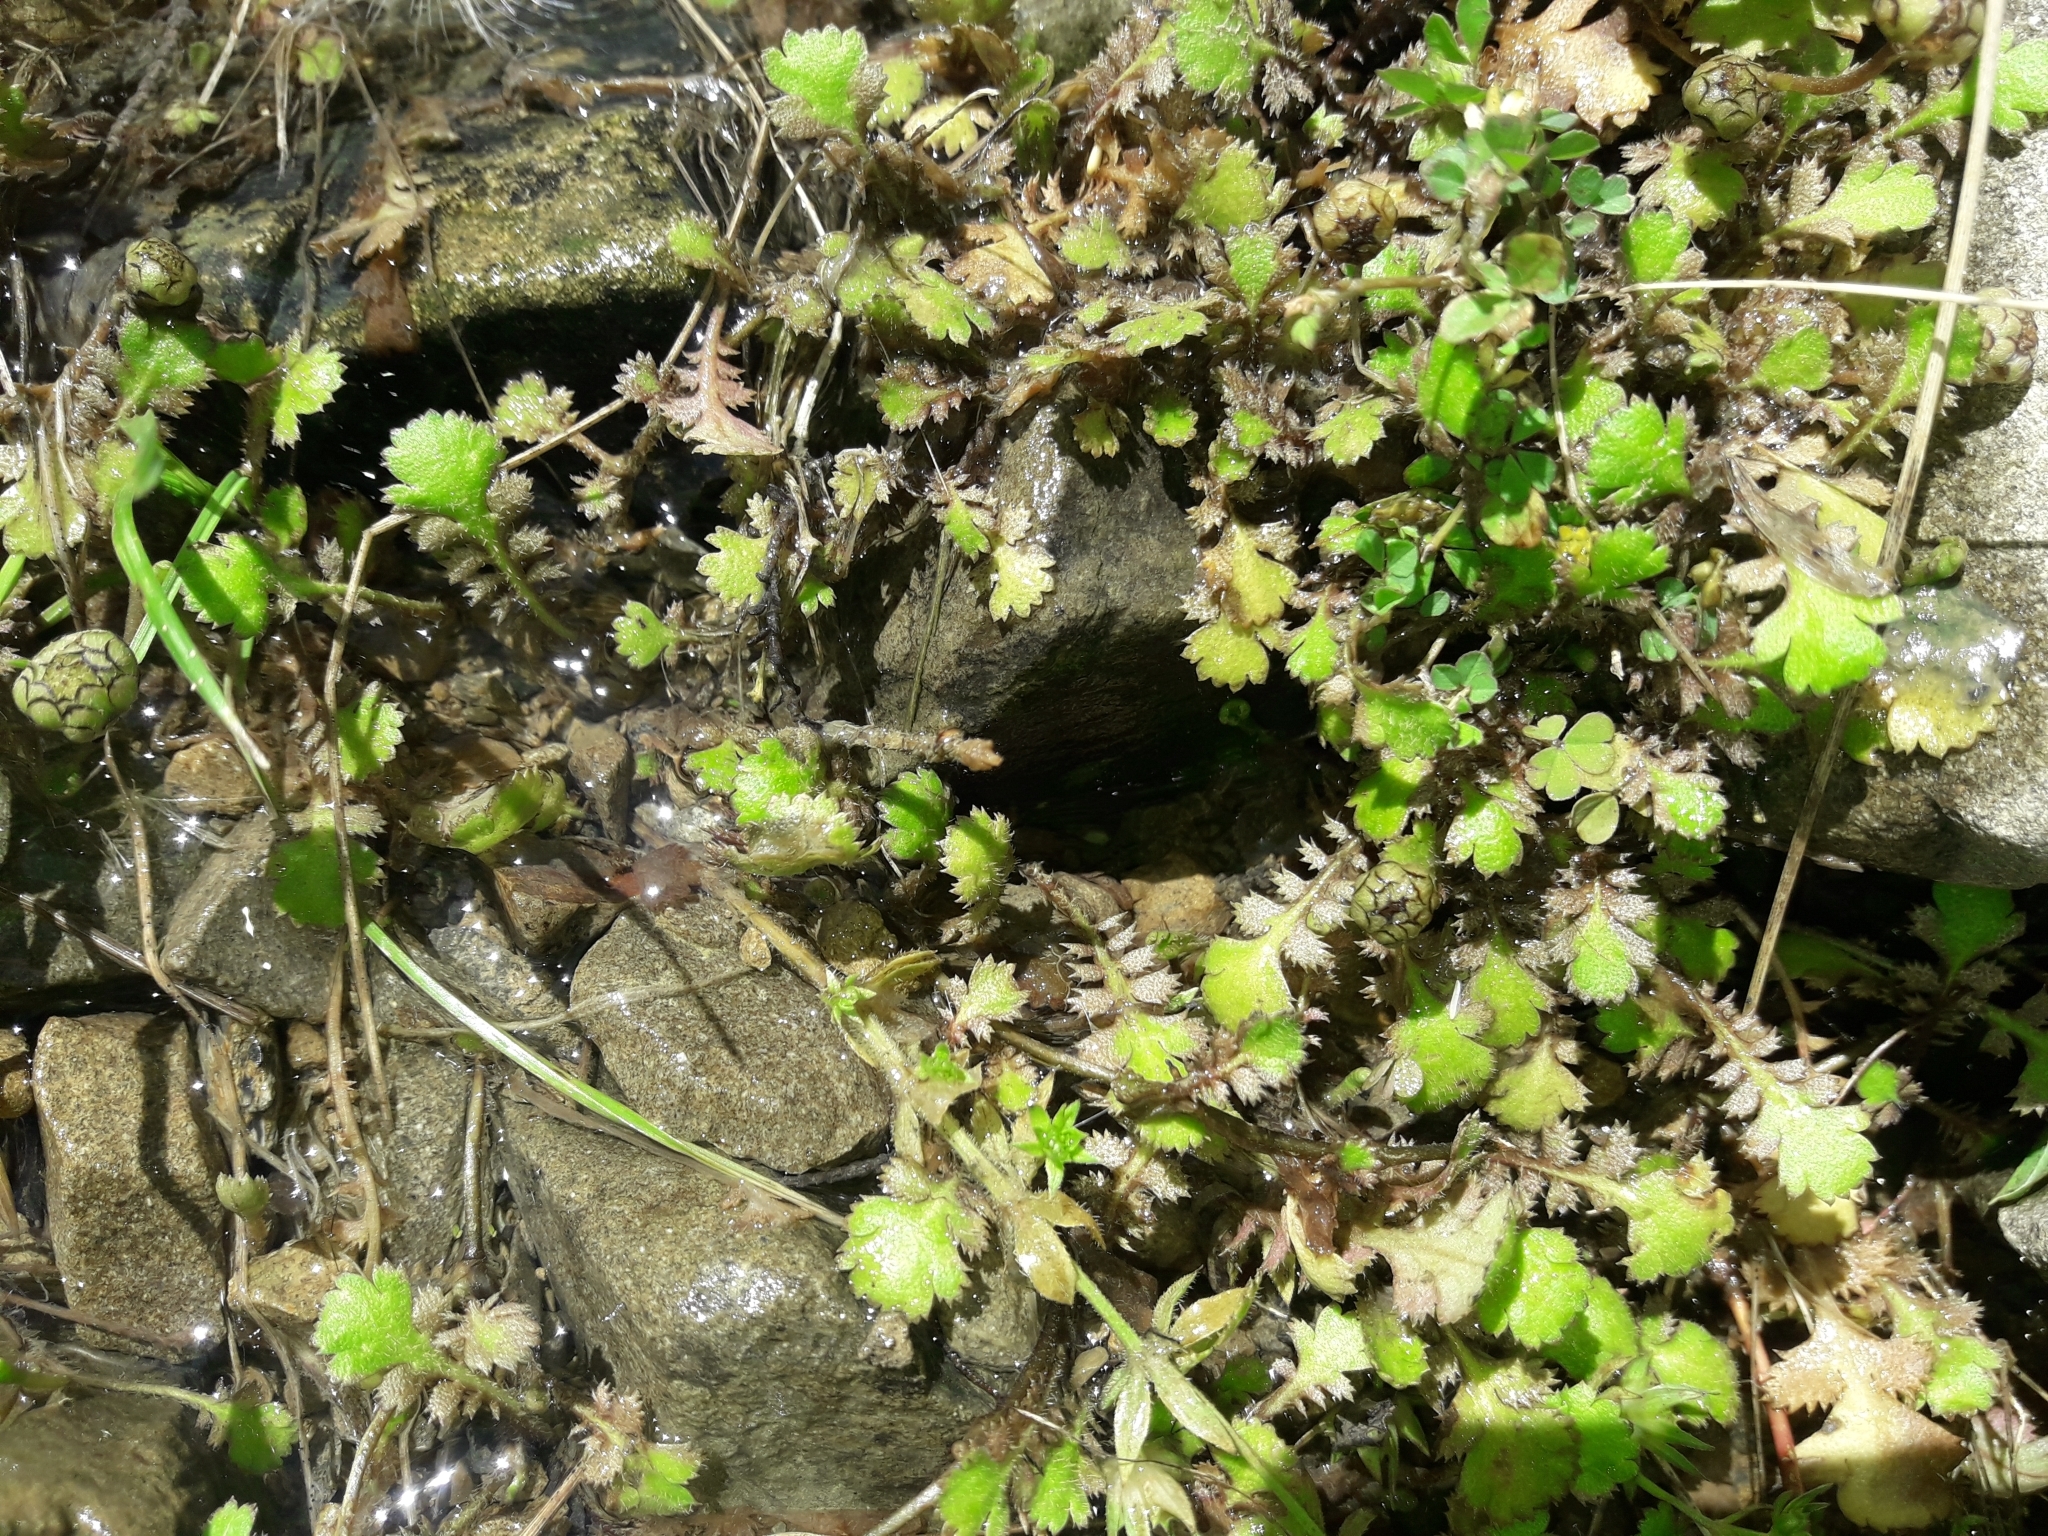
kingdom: Plantae
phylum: Tracheophyta
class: Magnoliopsida
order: Asterales
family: Asteraceae
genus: Leptinella
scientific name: Leptinella squalida
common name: New zealand brass-buttons
